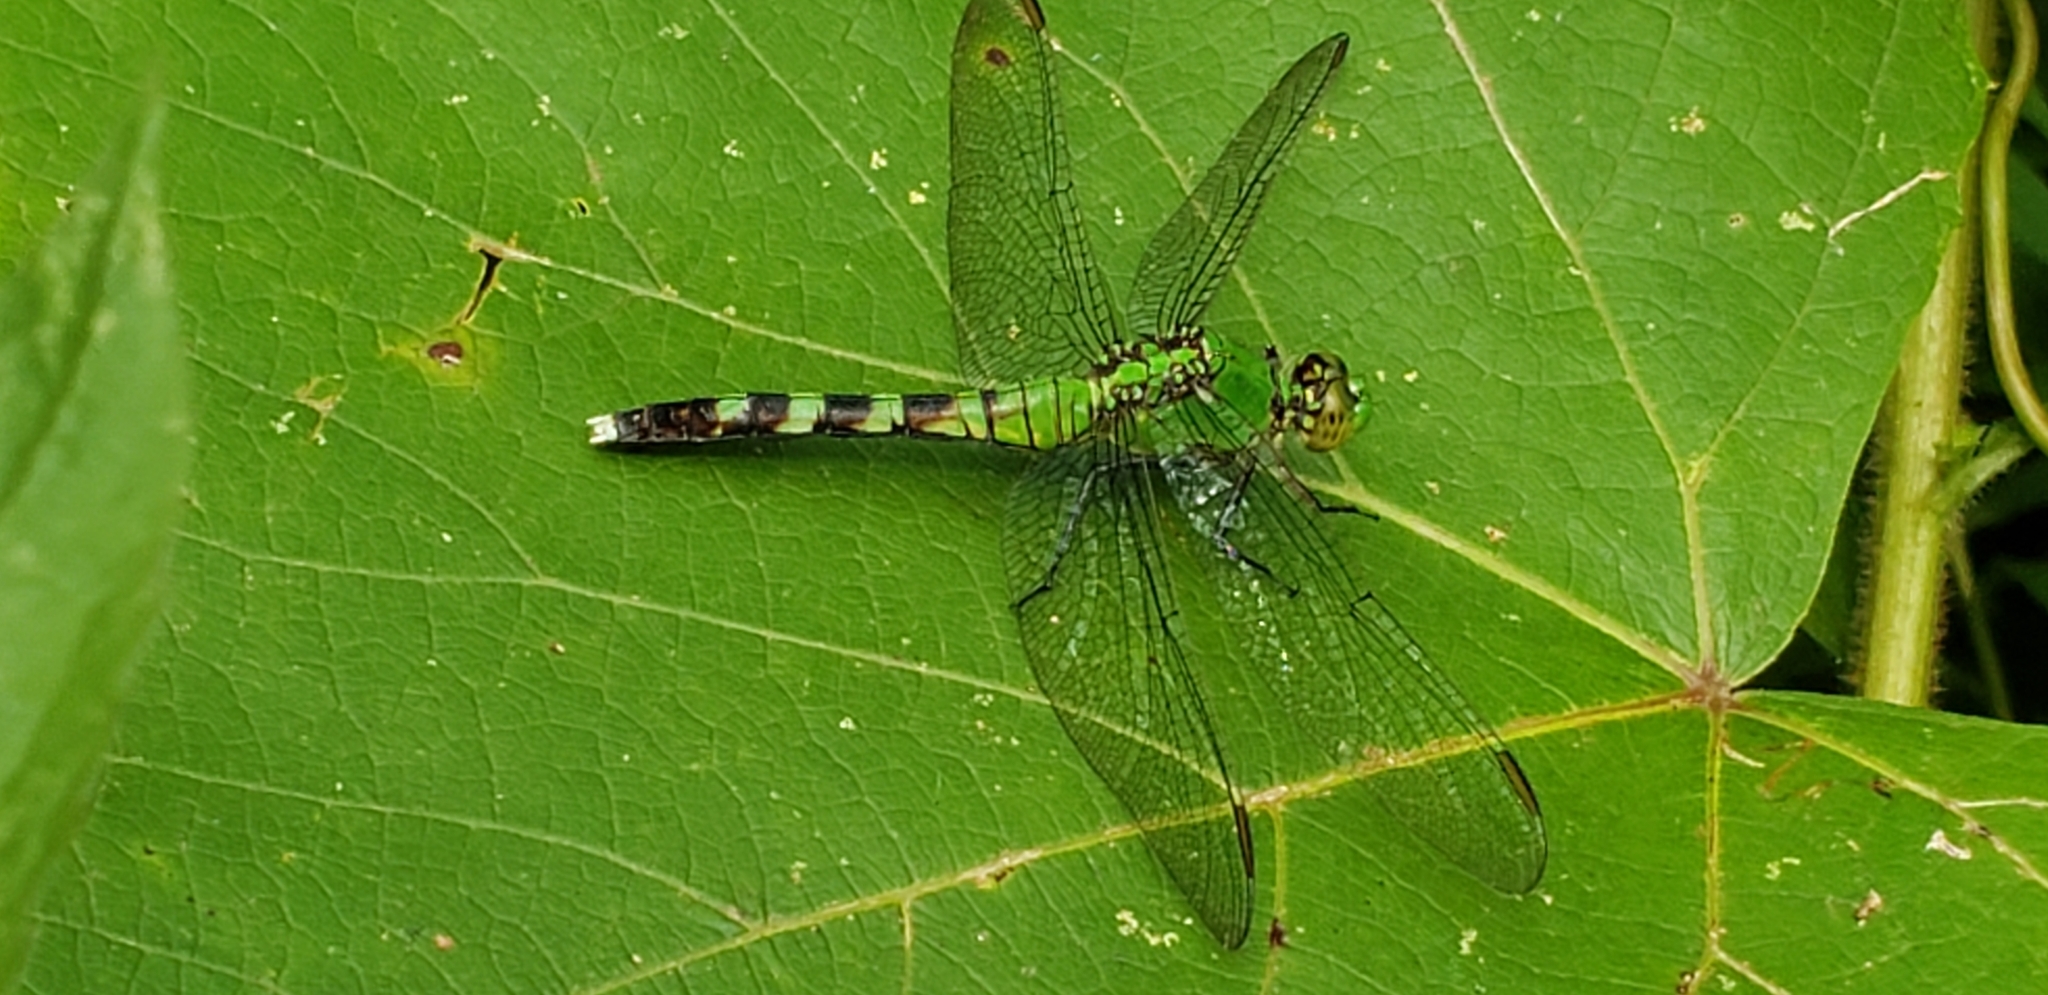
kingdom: Animalia
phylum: Arthropoda
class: Insecta
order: Odonata
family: Libellulidae
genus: Erythemis
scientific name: Erythemis simplicicollis
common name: Eastern pondhawk
